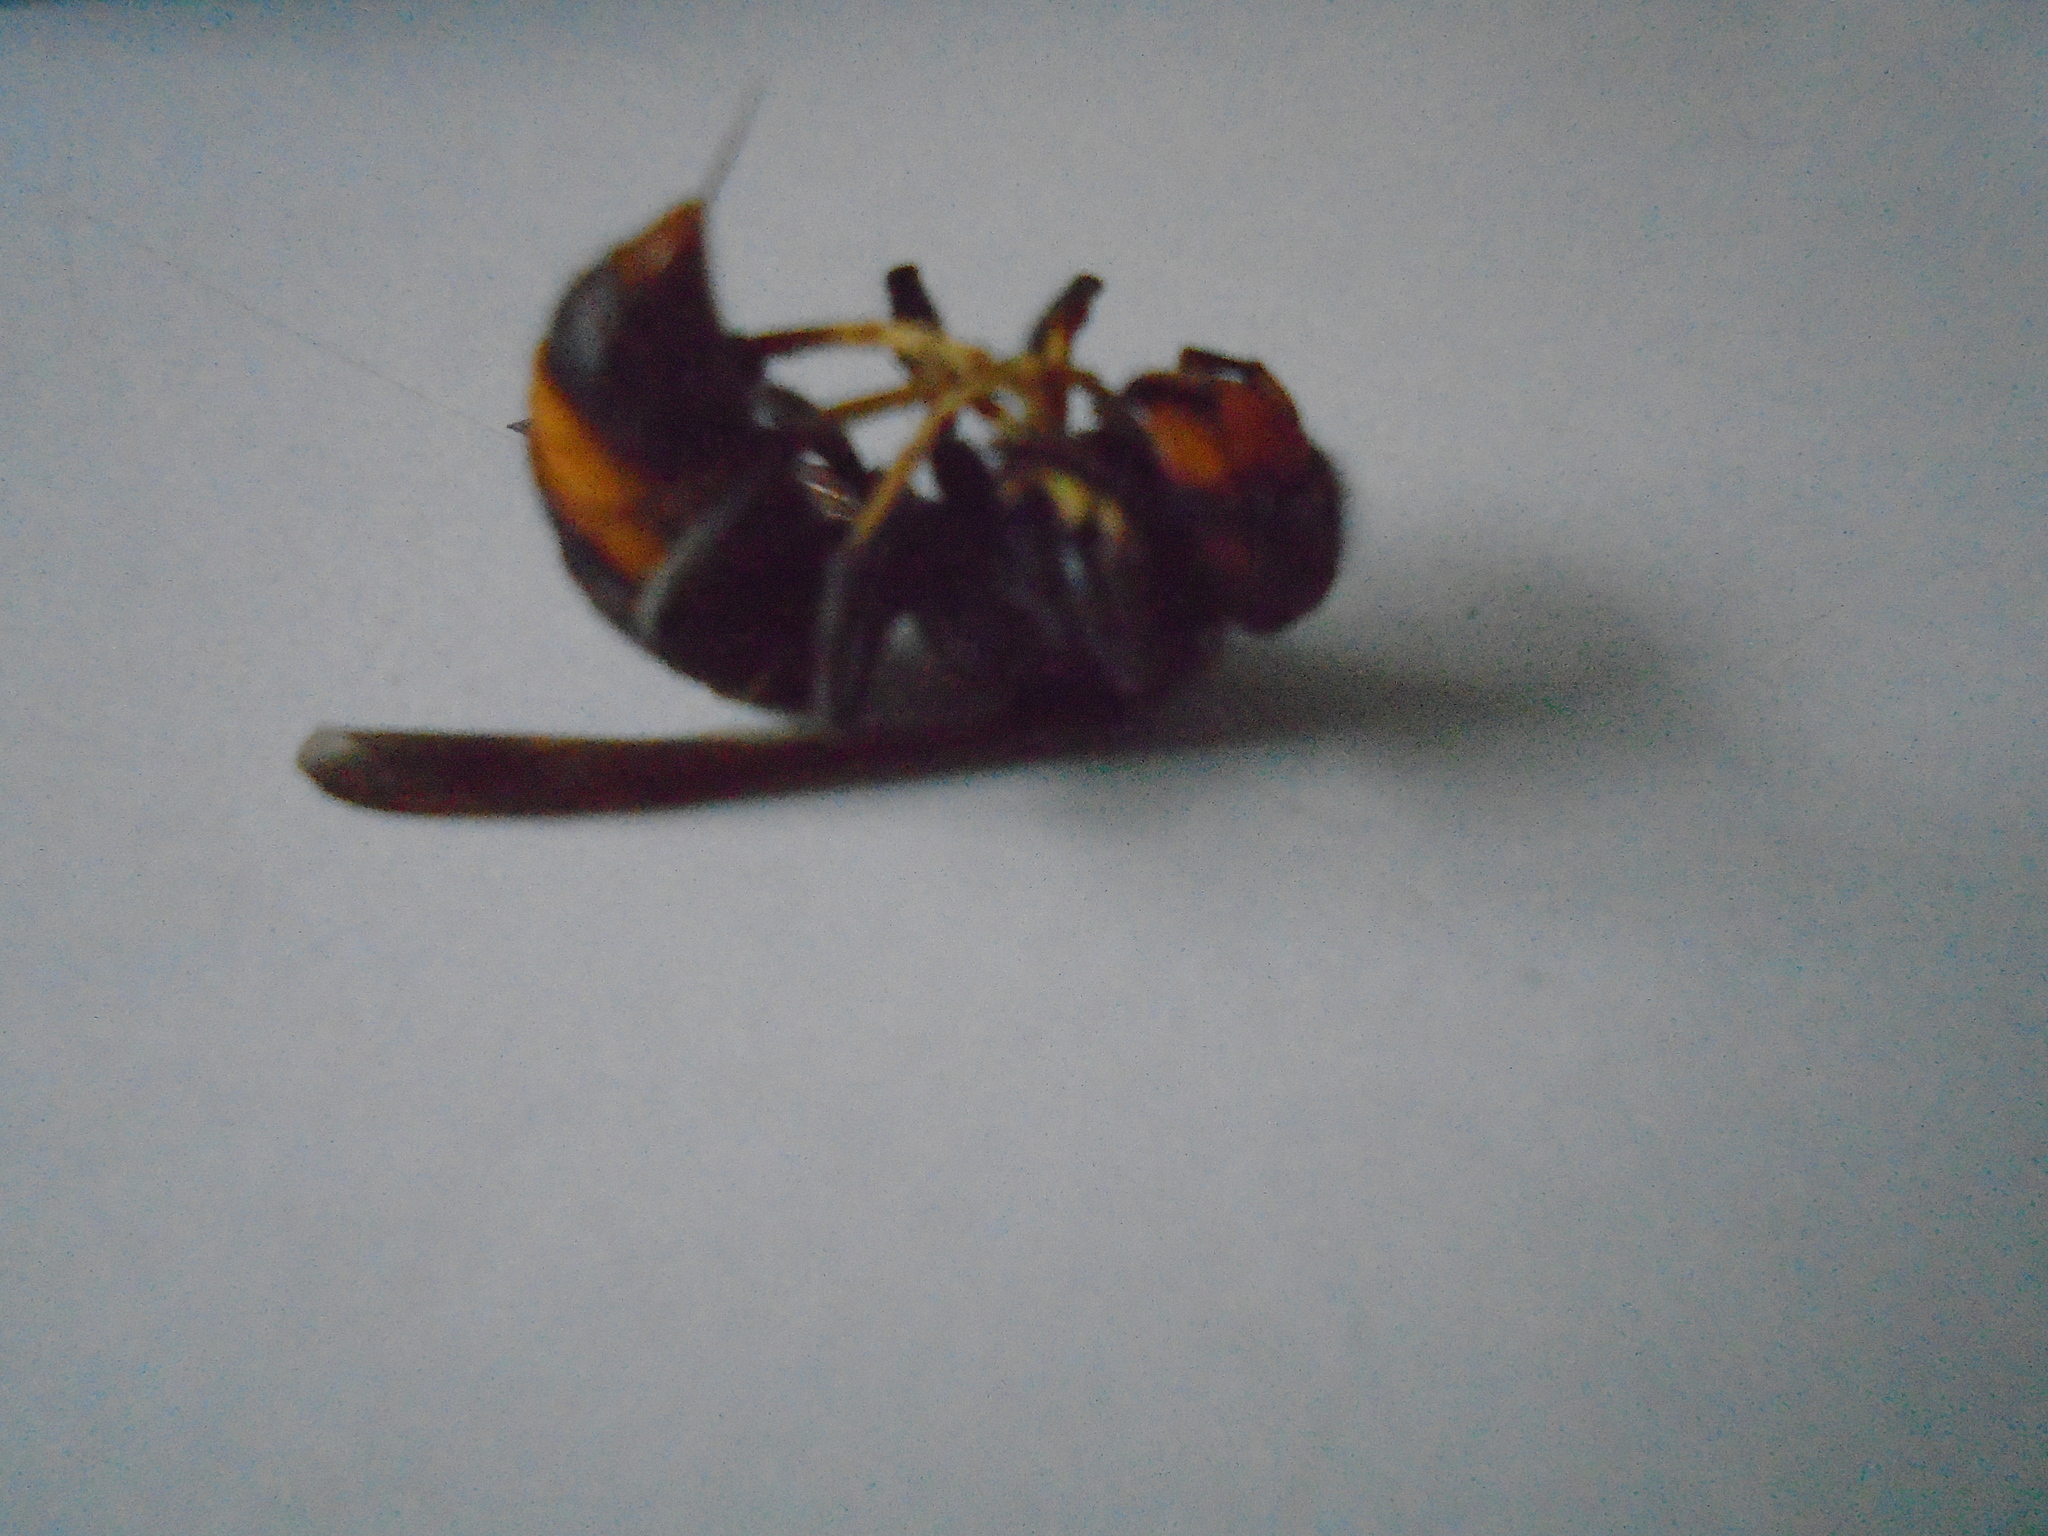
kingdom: Animalia
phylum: Arthropoda
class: Insecta
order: Hymenoptera
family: Vespidae
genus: Vespa
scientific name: Vespa velutina
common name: Asian hornet
